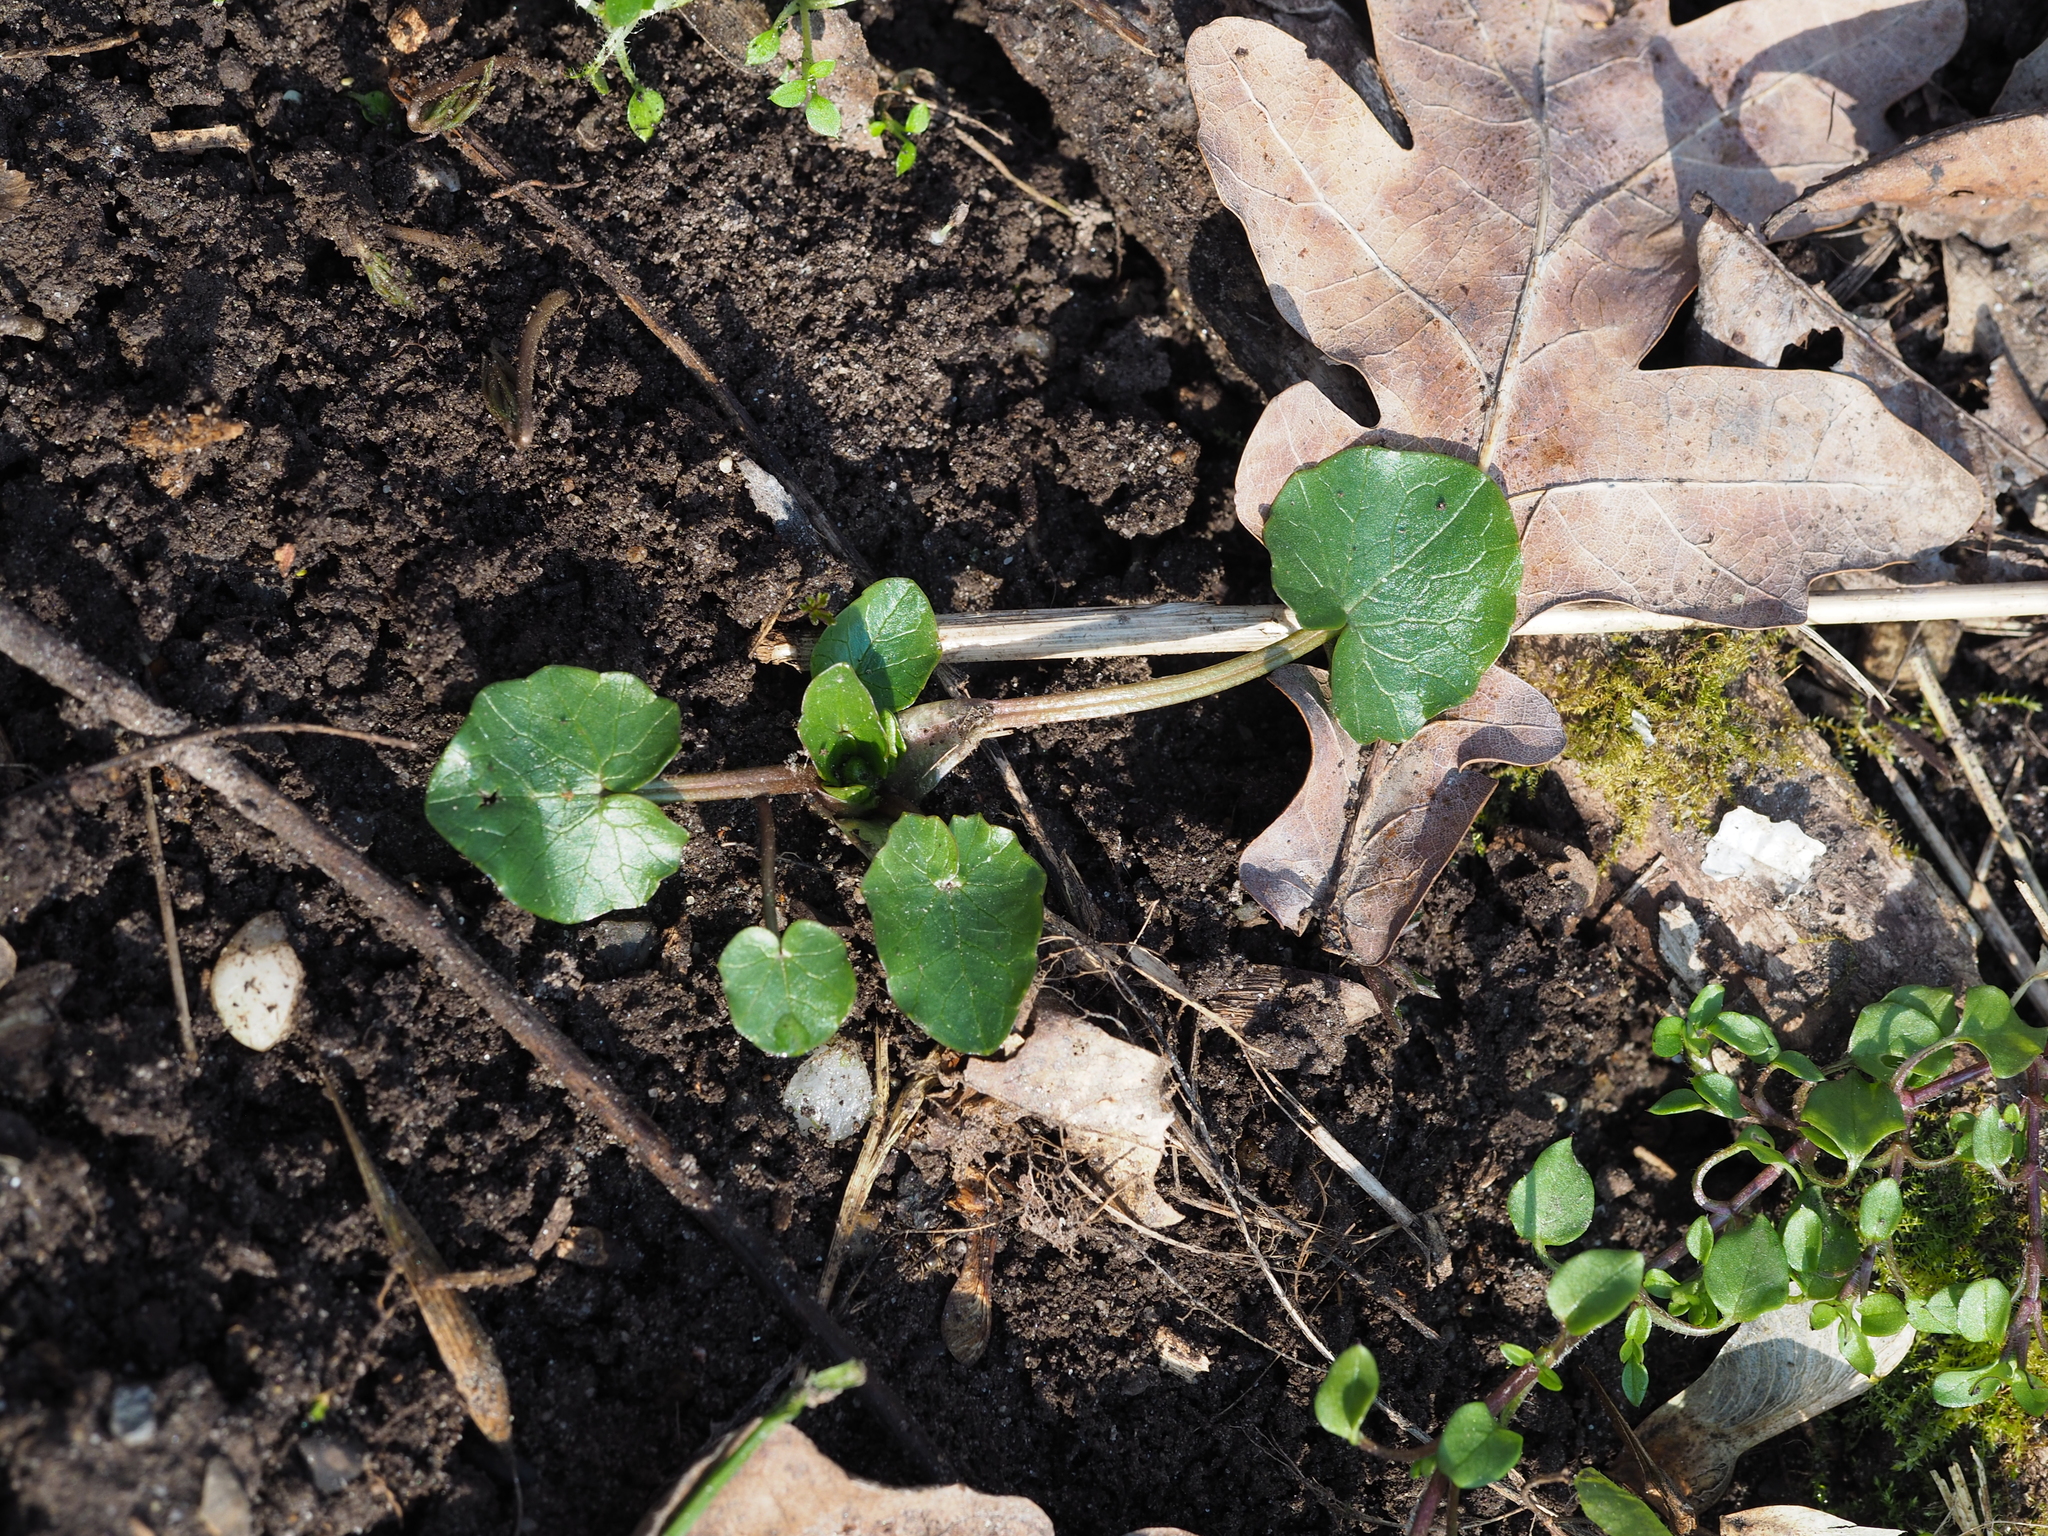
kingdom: Plantae
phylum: Tracheophyta
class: Magnoliopsida
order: Ranunculales
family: Ranunculaceae
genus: Ficaria
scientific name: Ficaria verna
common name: Lesser celandine
